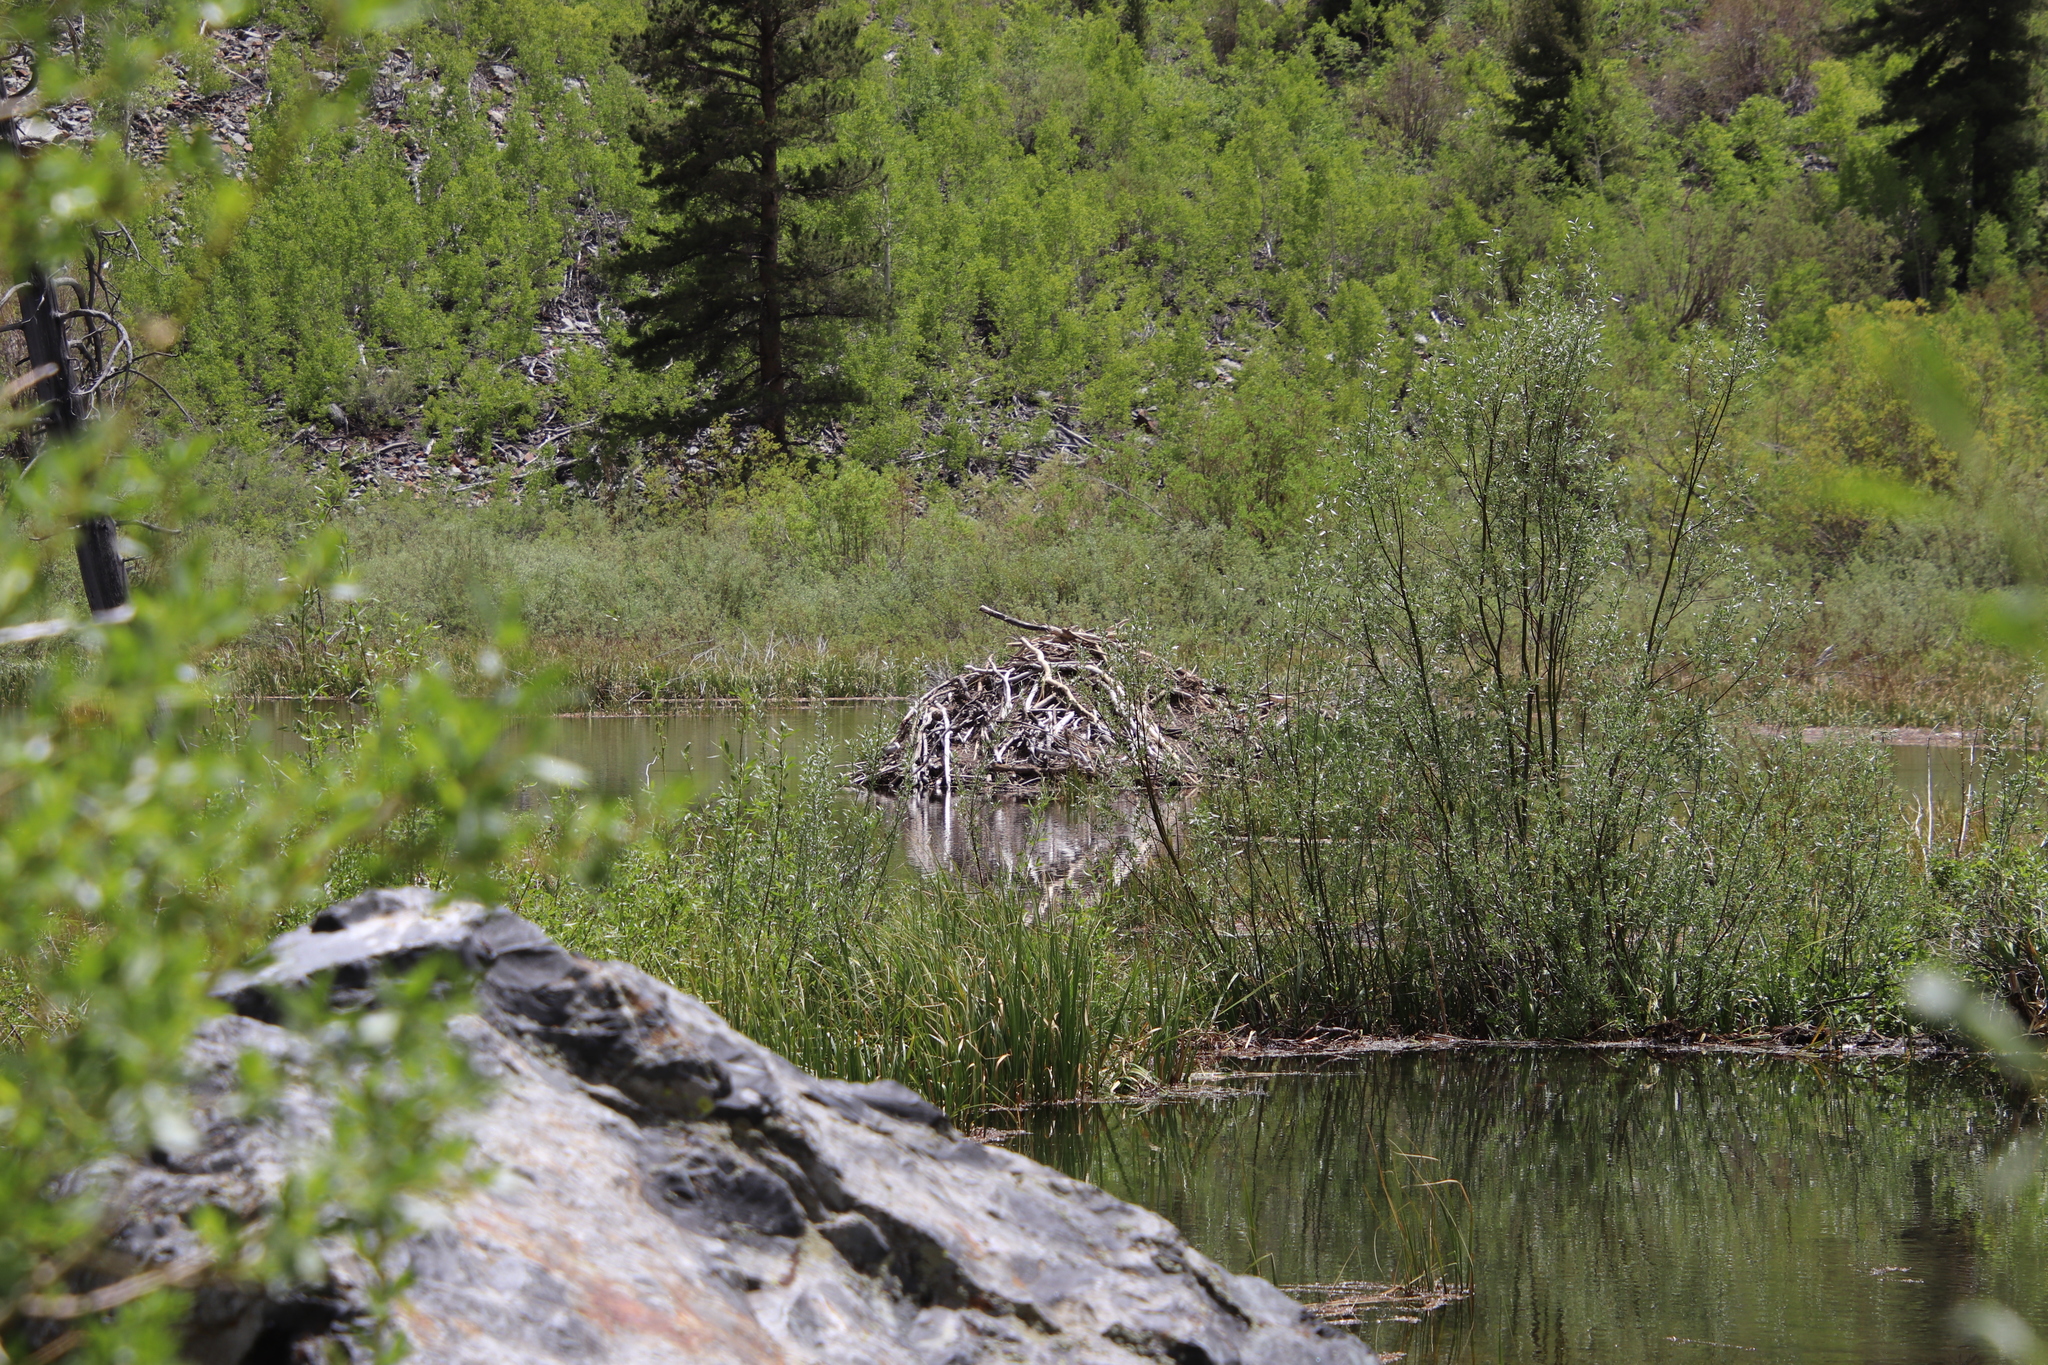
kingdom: Animalia
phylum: Chordata
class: Mammalia
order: Rodentia
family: Castoridae
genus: Castor
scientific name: Castor canadensis
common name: American beaver
